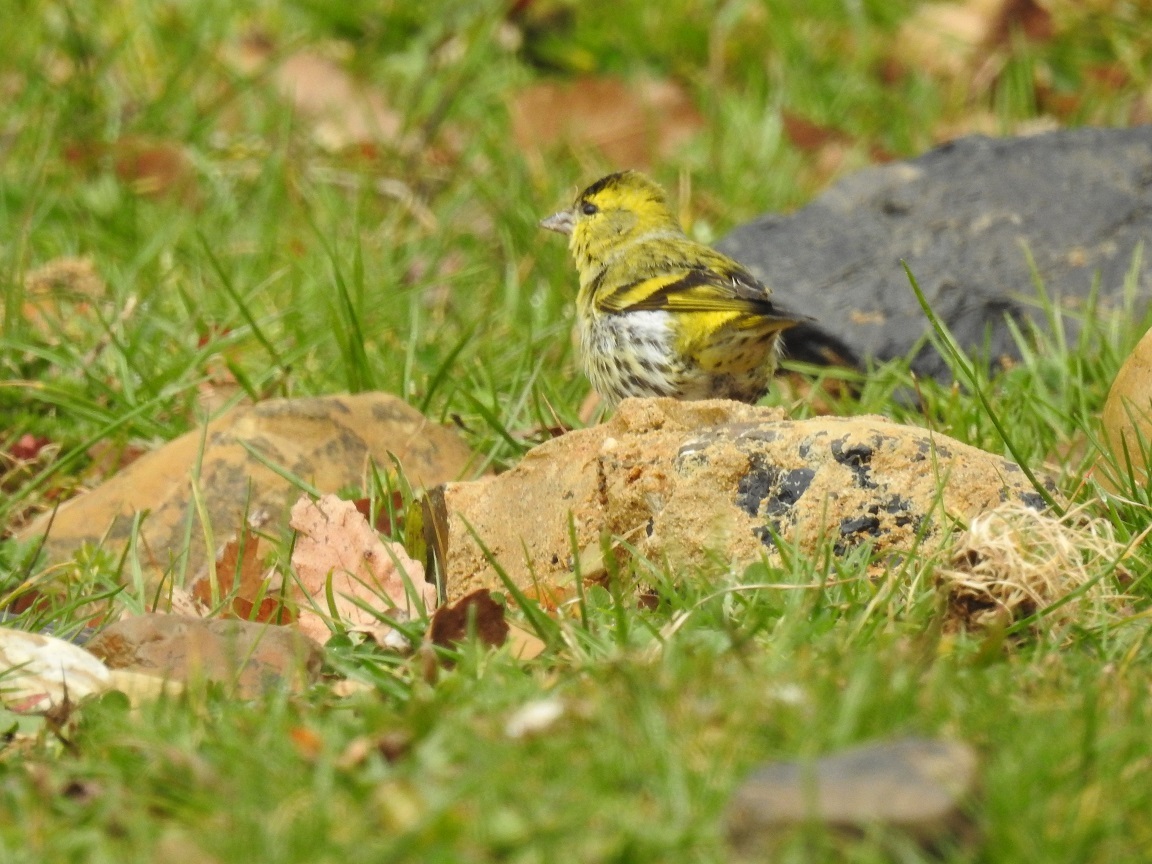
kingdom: Animalia
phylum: Chordata
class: Aves
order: Passeriformes
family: Fringillidae
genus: Spinus
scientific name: Spinus spinus
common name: Eurasian siskin
